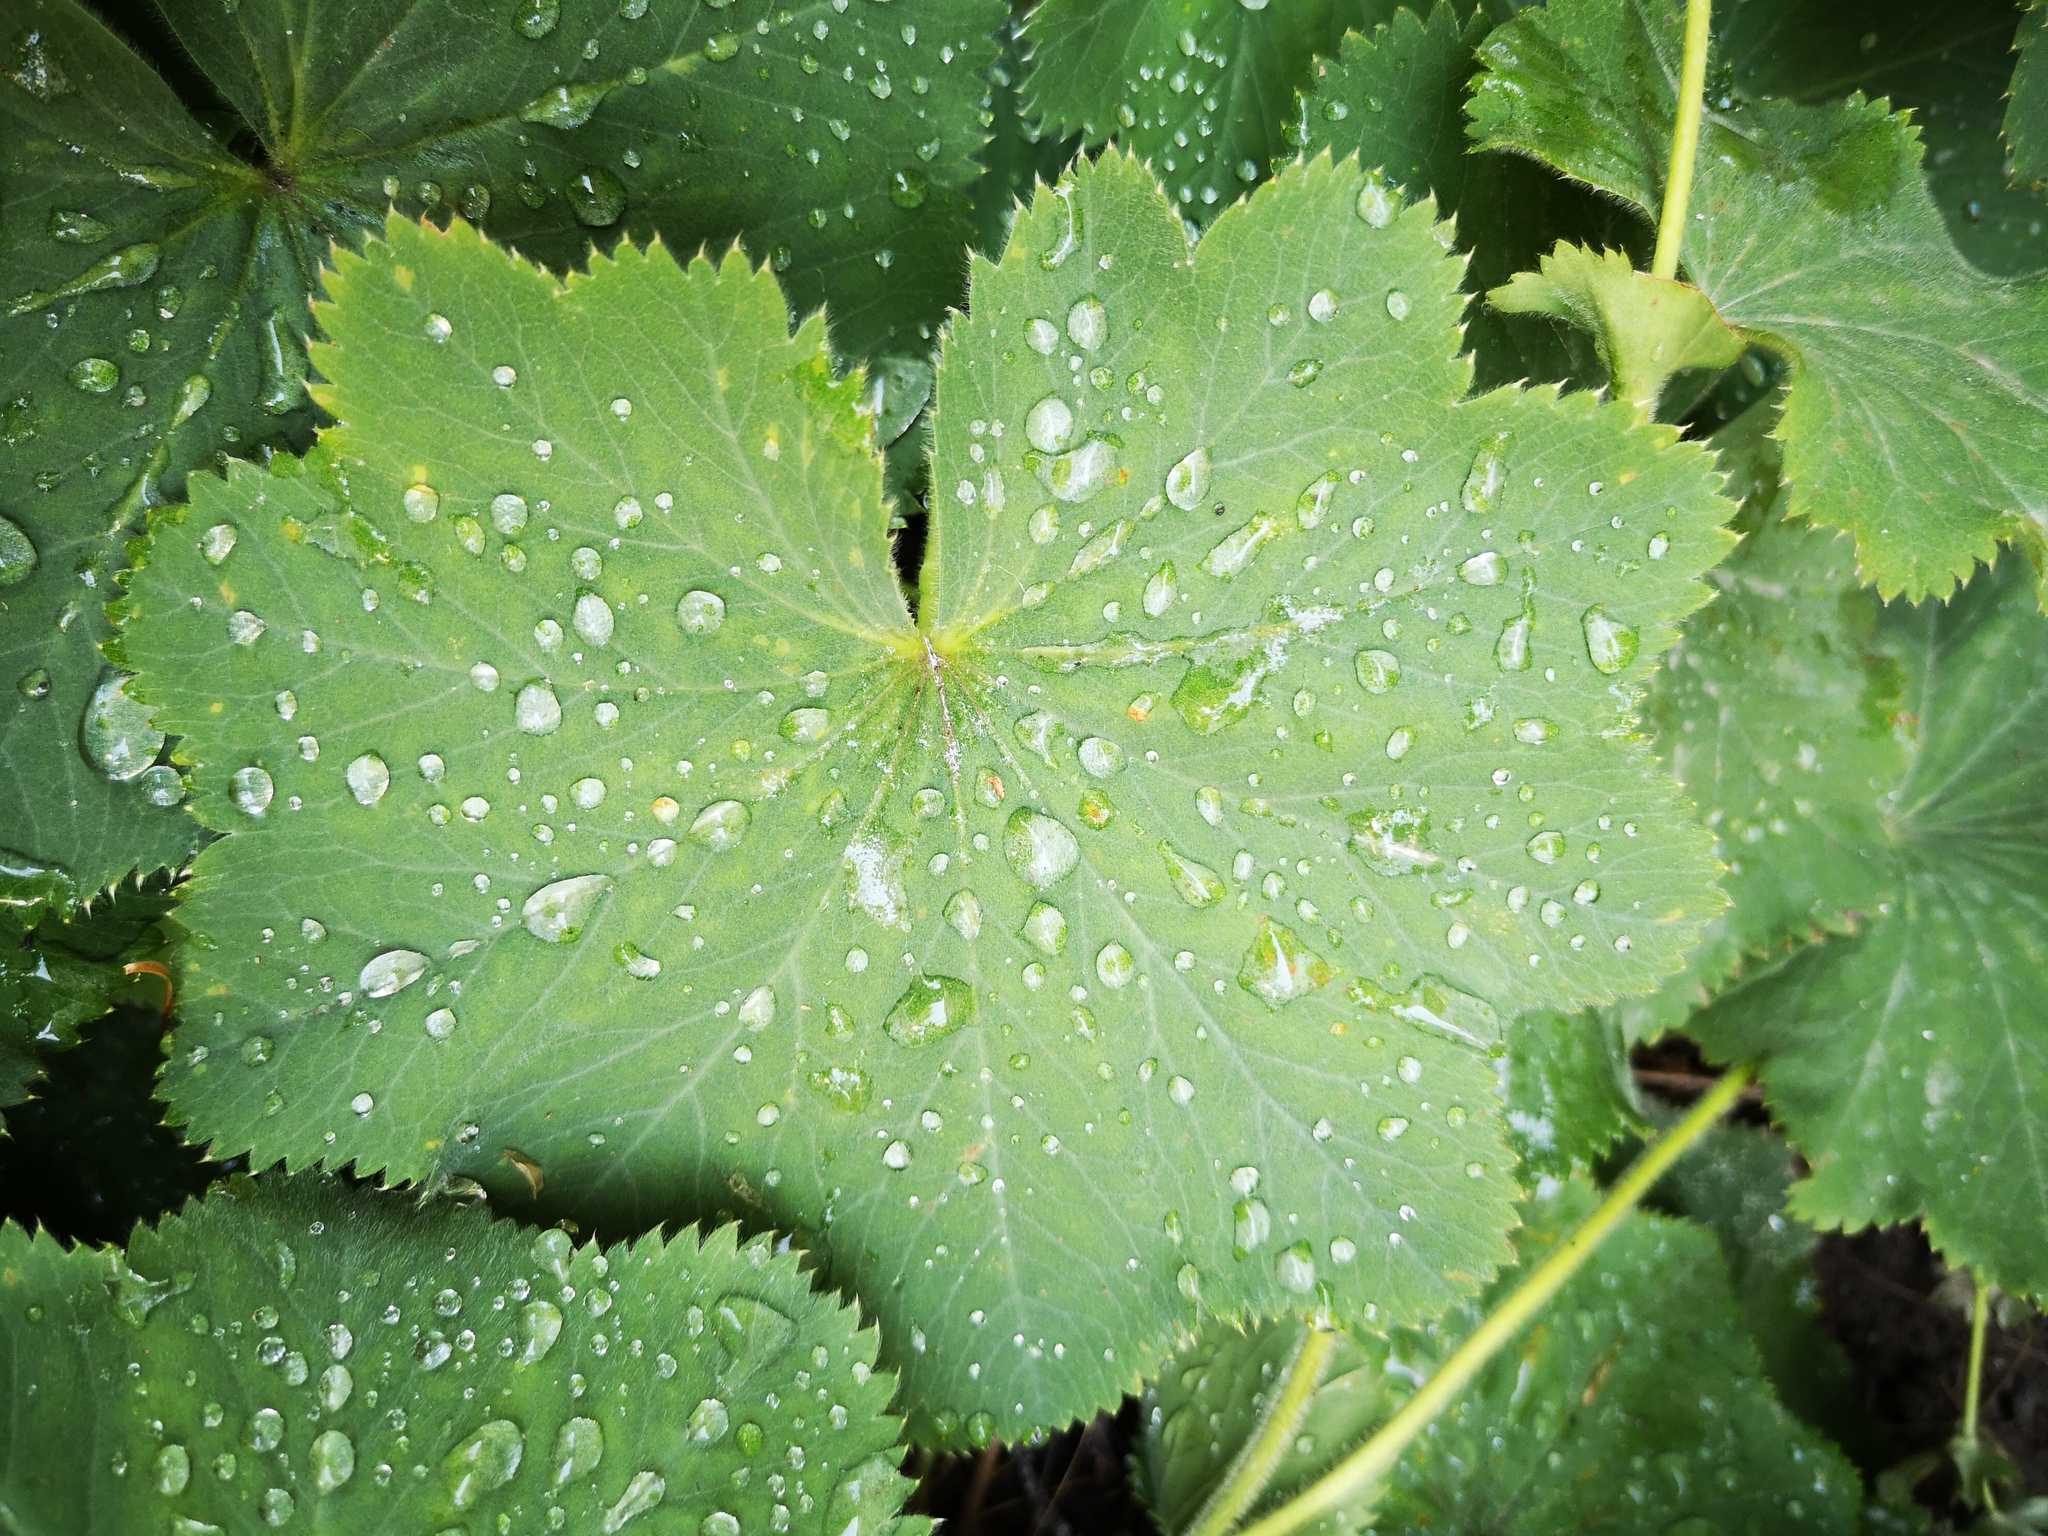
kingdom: Plantae
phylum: Tracheophyta
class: Magnoliopsida
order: Rosales
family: Rosaceae
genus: Alchemilla
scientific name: Alchemilla mollis
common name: Lady's-mantle
